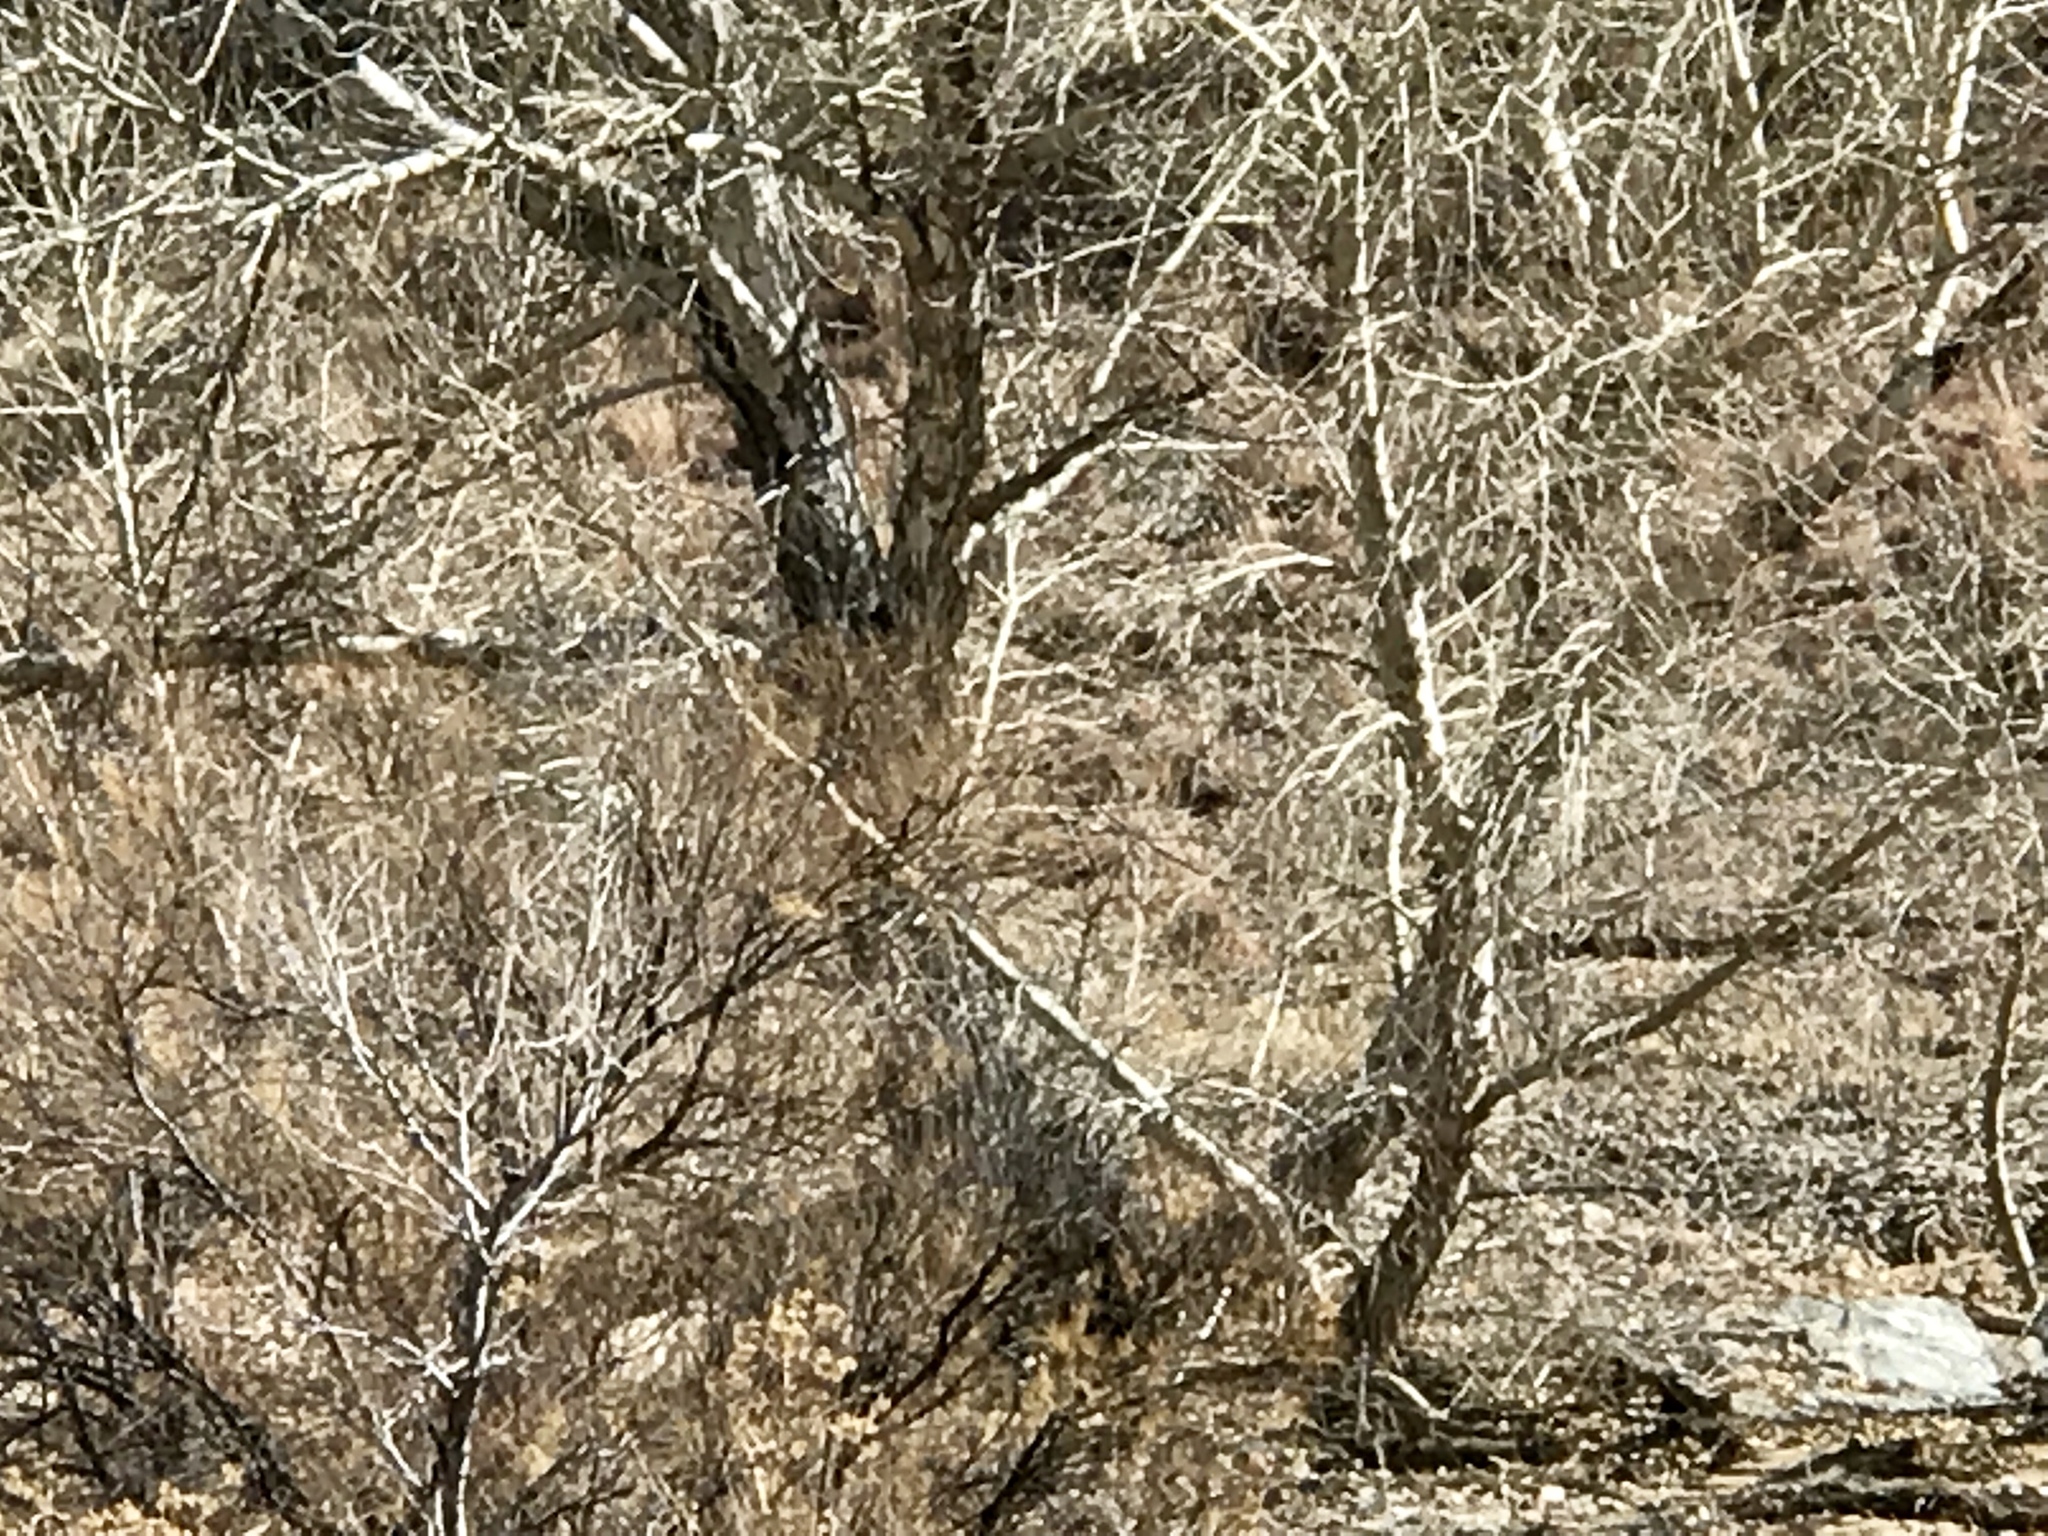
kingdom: Plantae
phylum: Tracheophyta
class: Magnoliopsida
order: Malpighiales
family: Salicaceae
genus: Populus
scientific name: Populus fremontii
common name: Fremont's cottonwood
